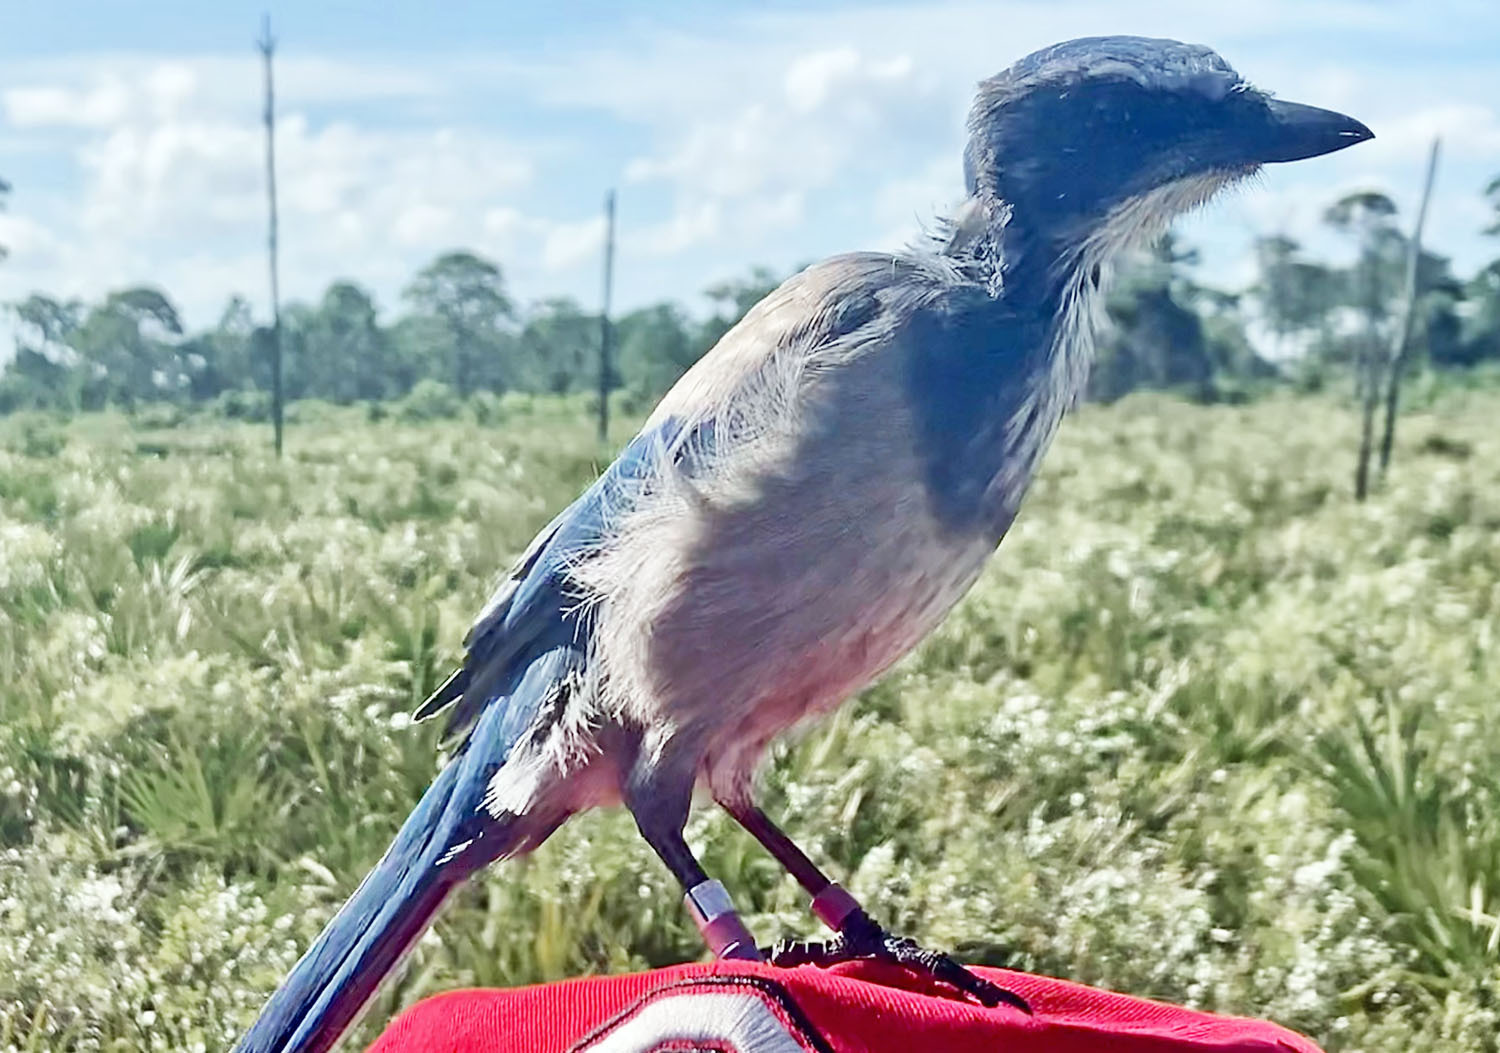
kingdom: Animalia
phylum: Chordata
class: Aves
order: Passeriformes
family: Corvidae
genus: Aphelocoma
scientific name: Aphelocoma coerulescens
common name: Florida scrub jay
